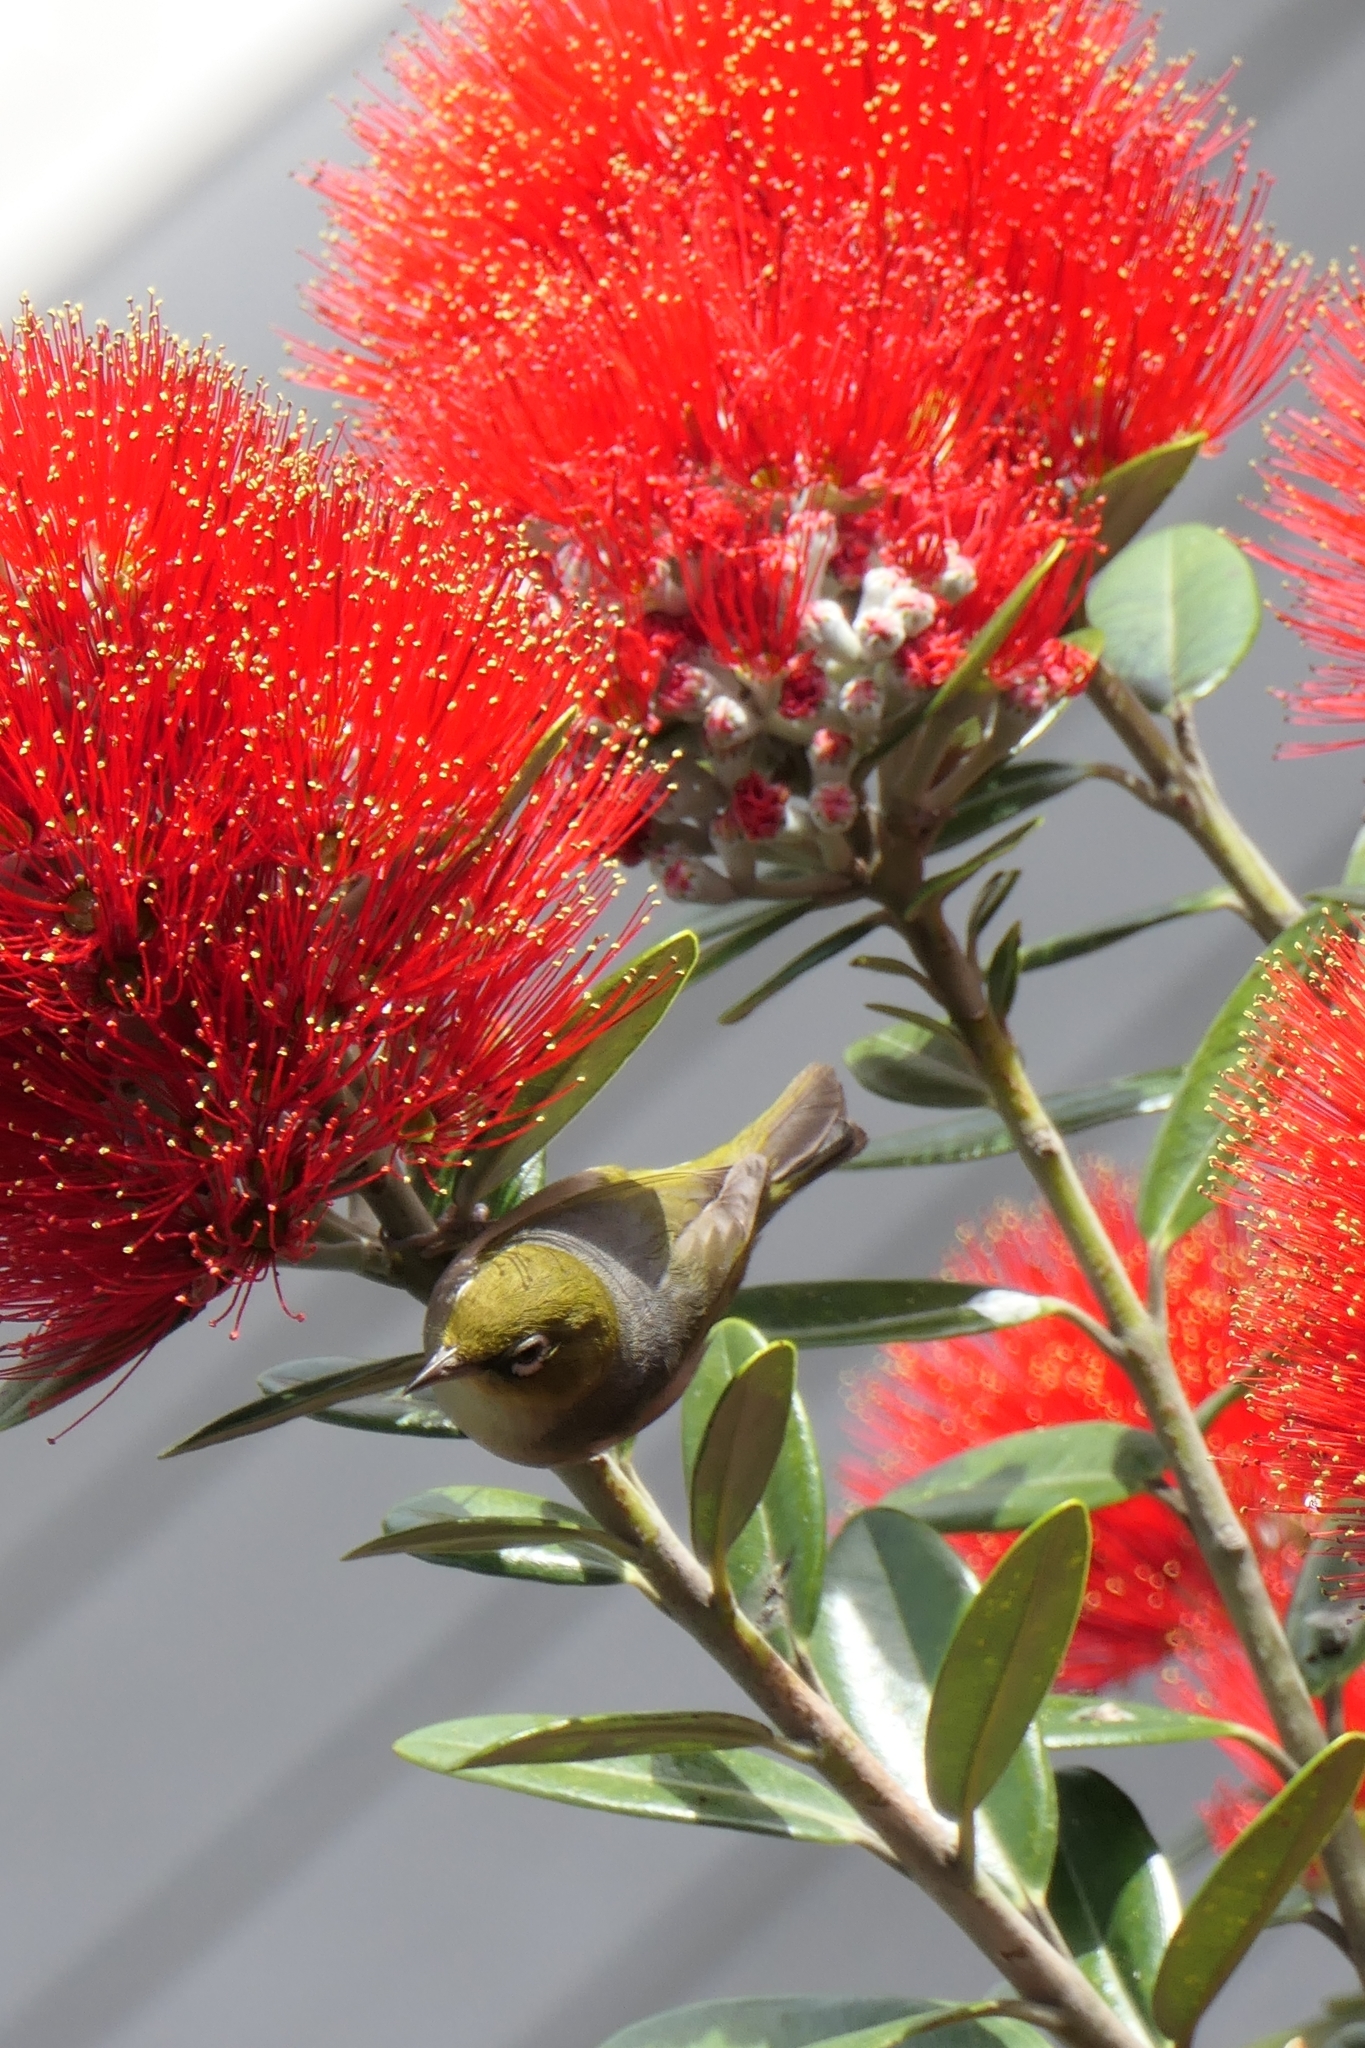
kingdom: Animalia
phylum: Chordata
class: Aves
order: Passeriformes
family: Zosteropidae
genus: Zosterops
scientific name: Zosterops lateralis
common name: Silvereye
